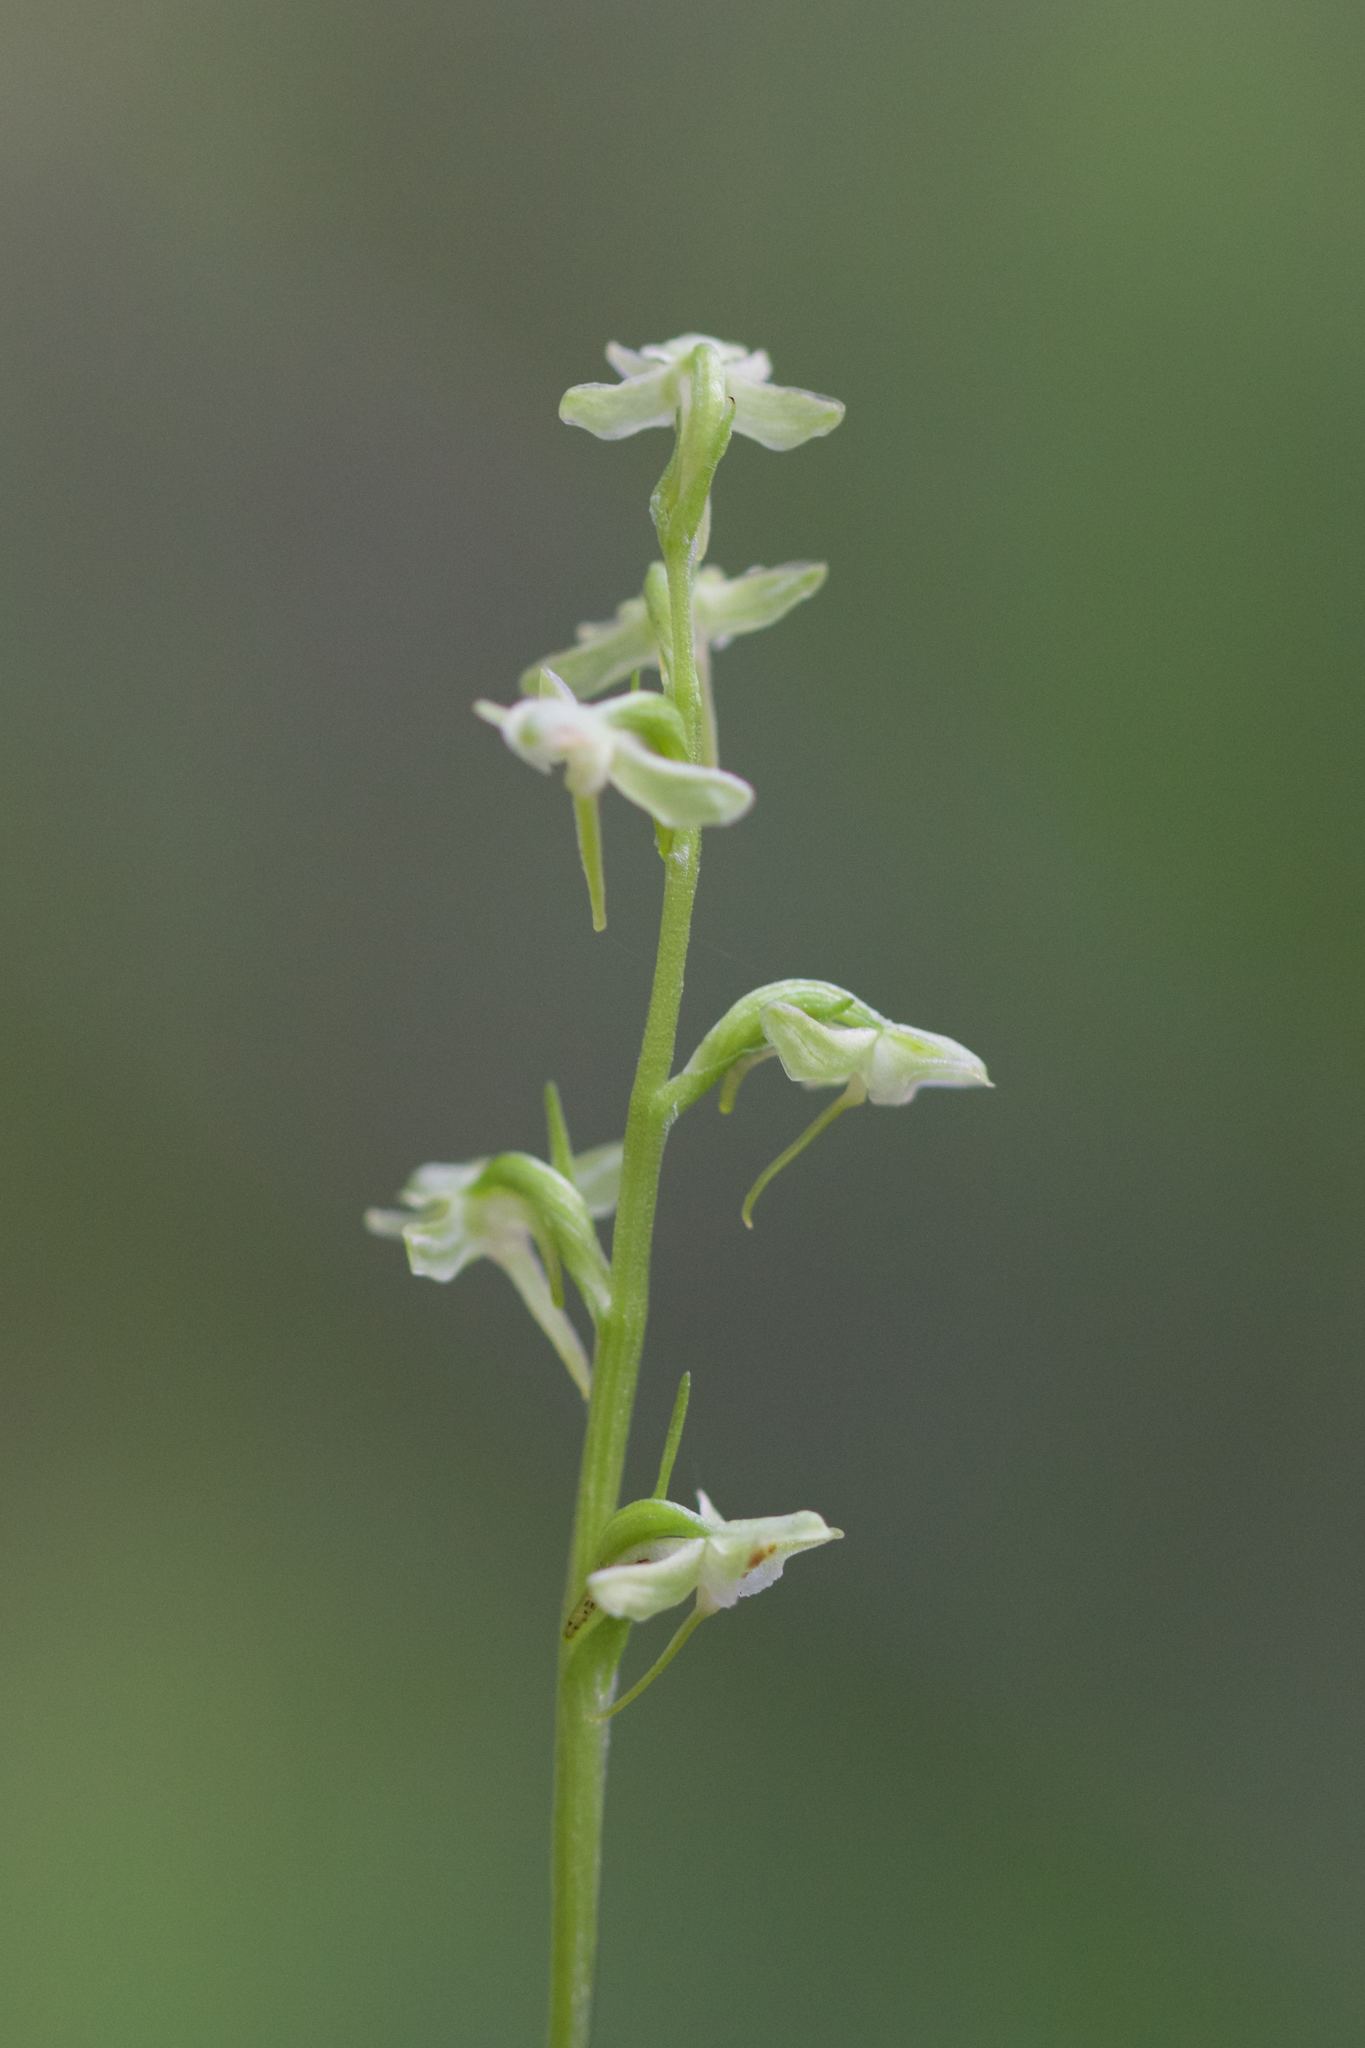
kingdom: Plantae
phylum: Tracheophyta
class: Liliopsida
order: Asparagales
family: Orchidaceae
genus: Platanthera
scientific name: Platanthera obtusata
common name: Blunt bog orchid
